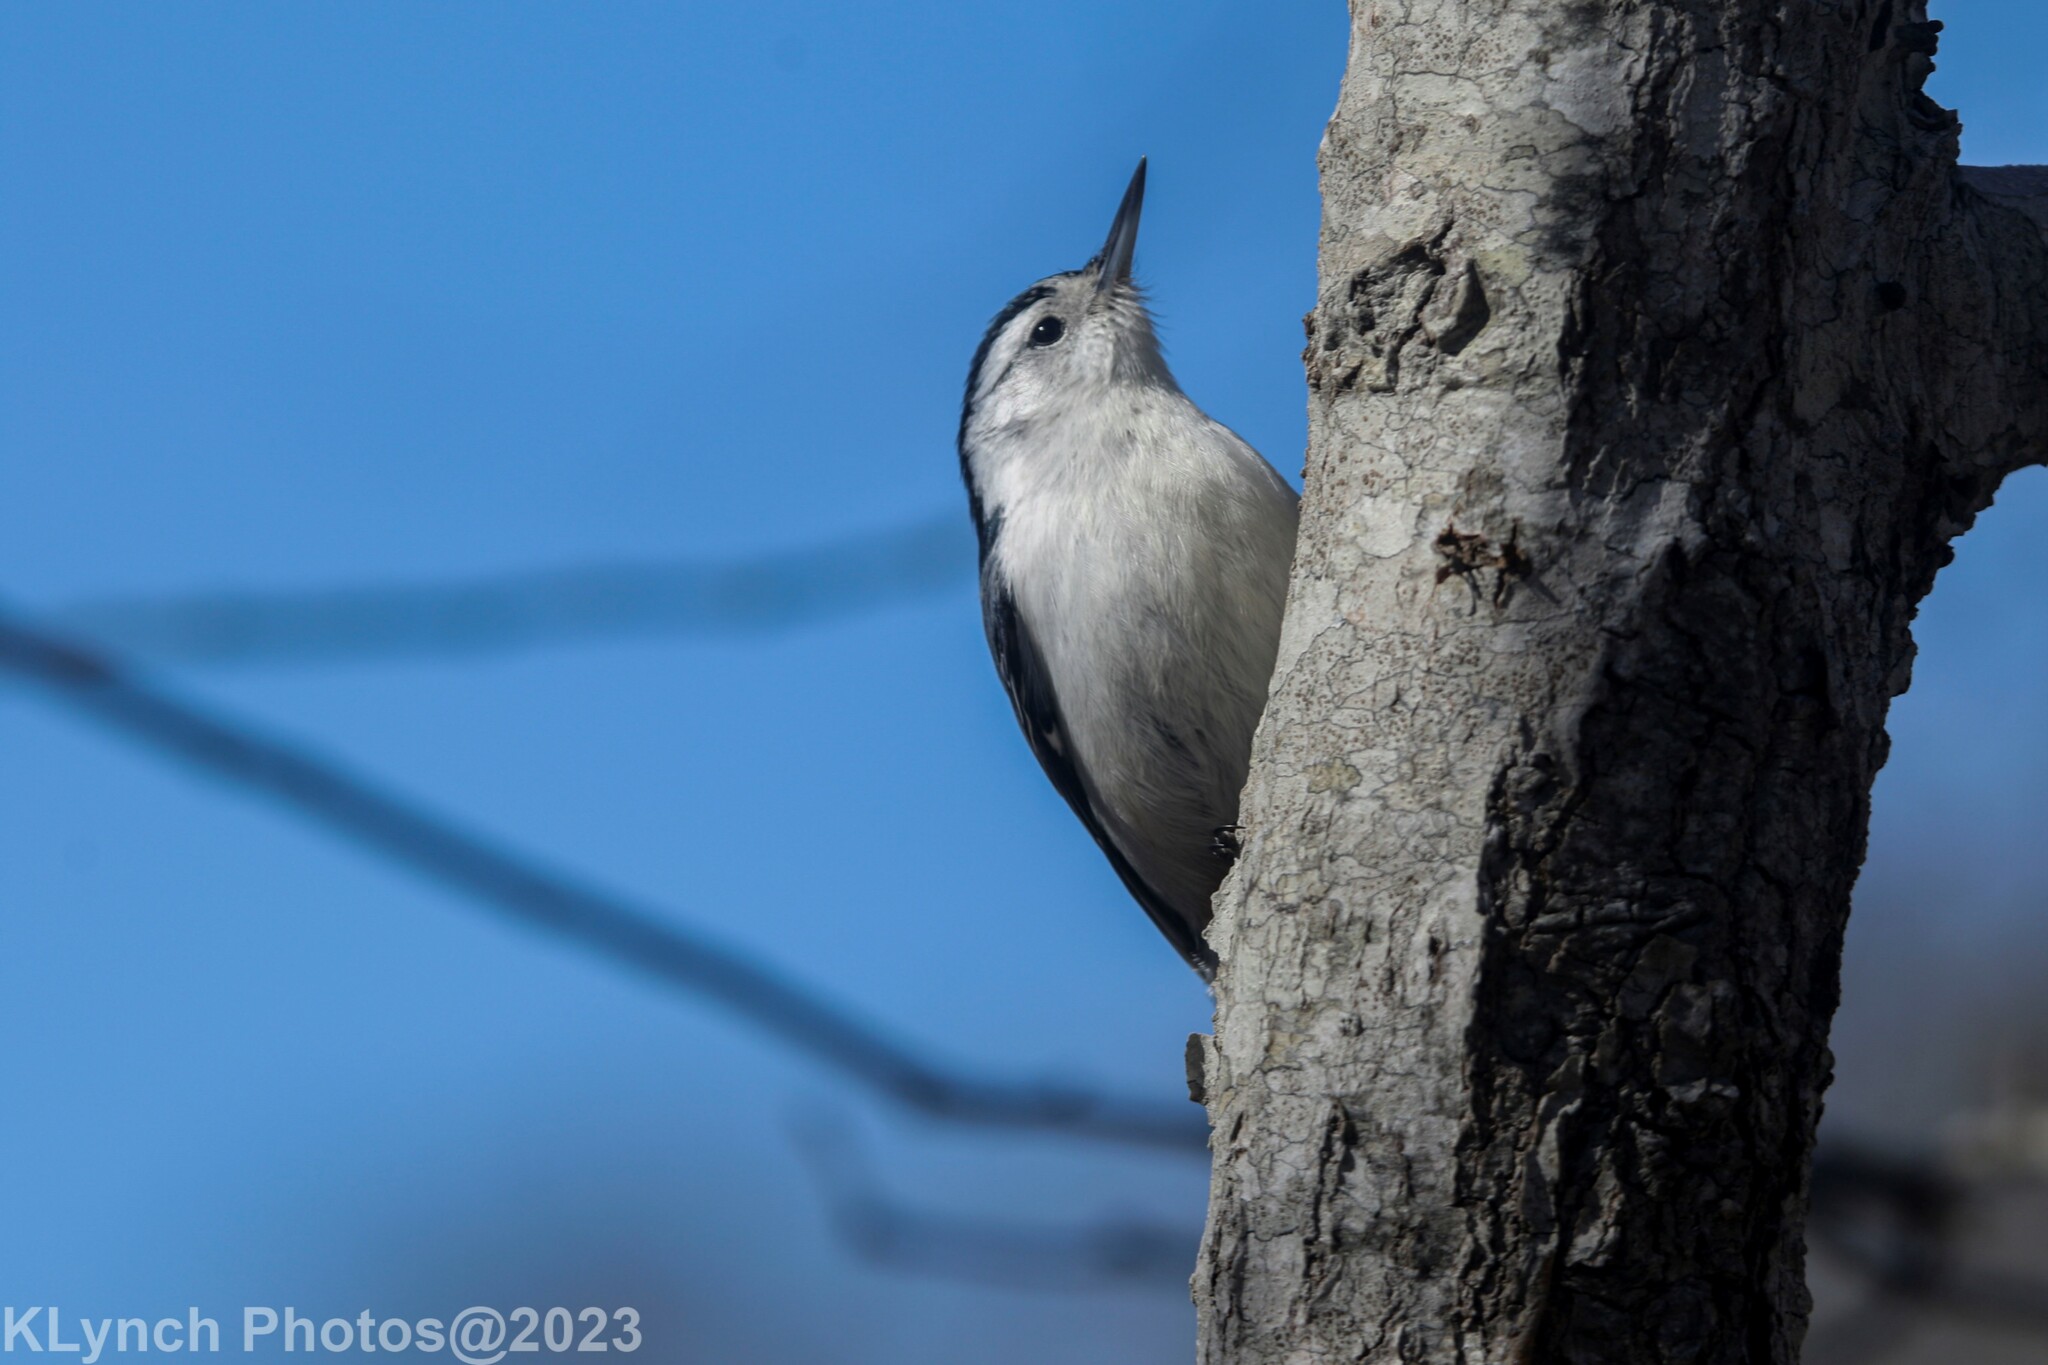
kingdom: Animalia
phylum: Chordata
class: Aves
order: Passeriformes
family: Sittidae
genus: Sitta
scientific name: Sitta carolinensis
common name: White-breasted nuthatch
